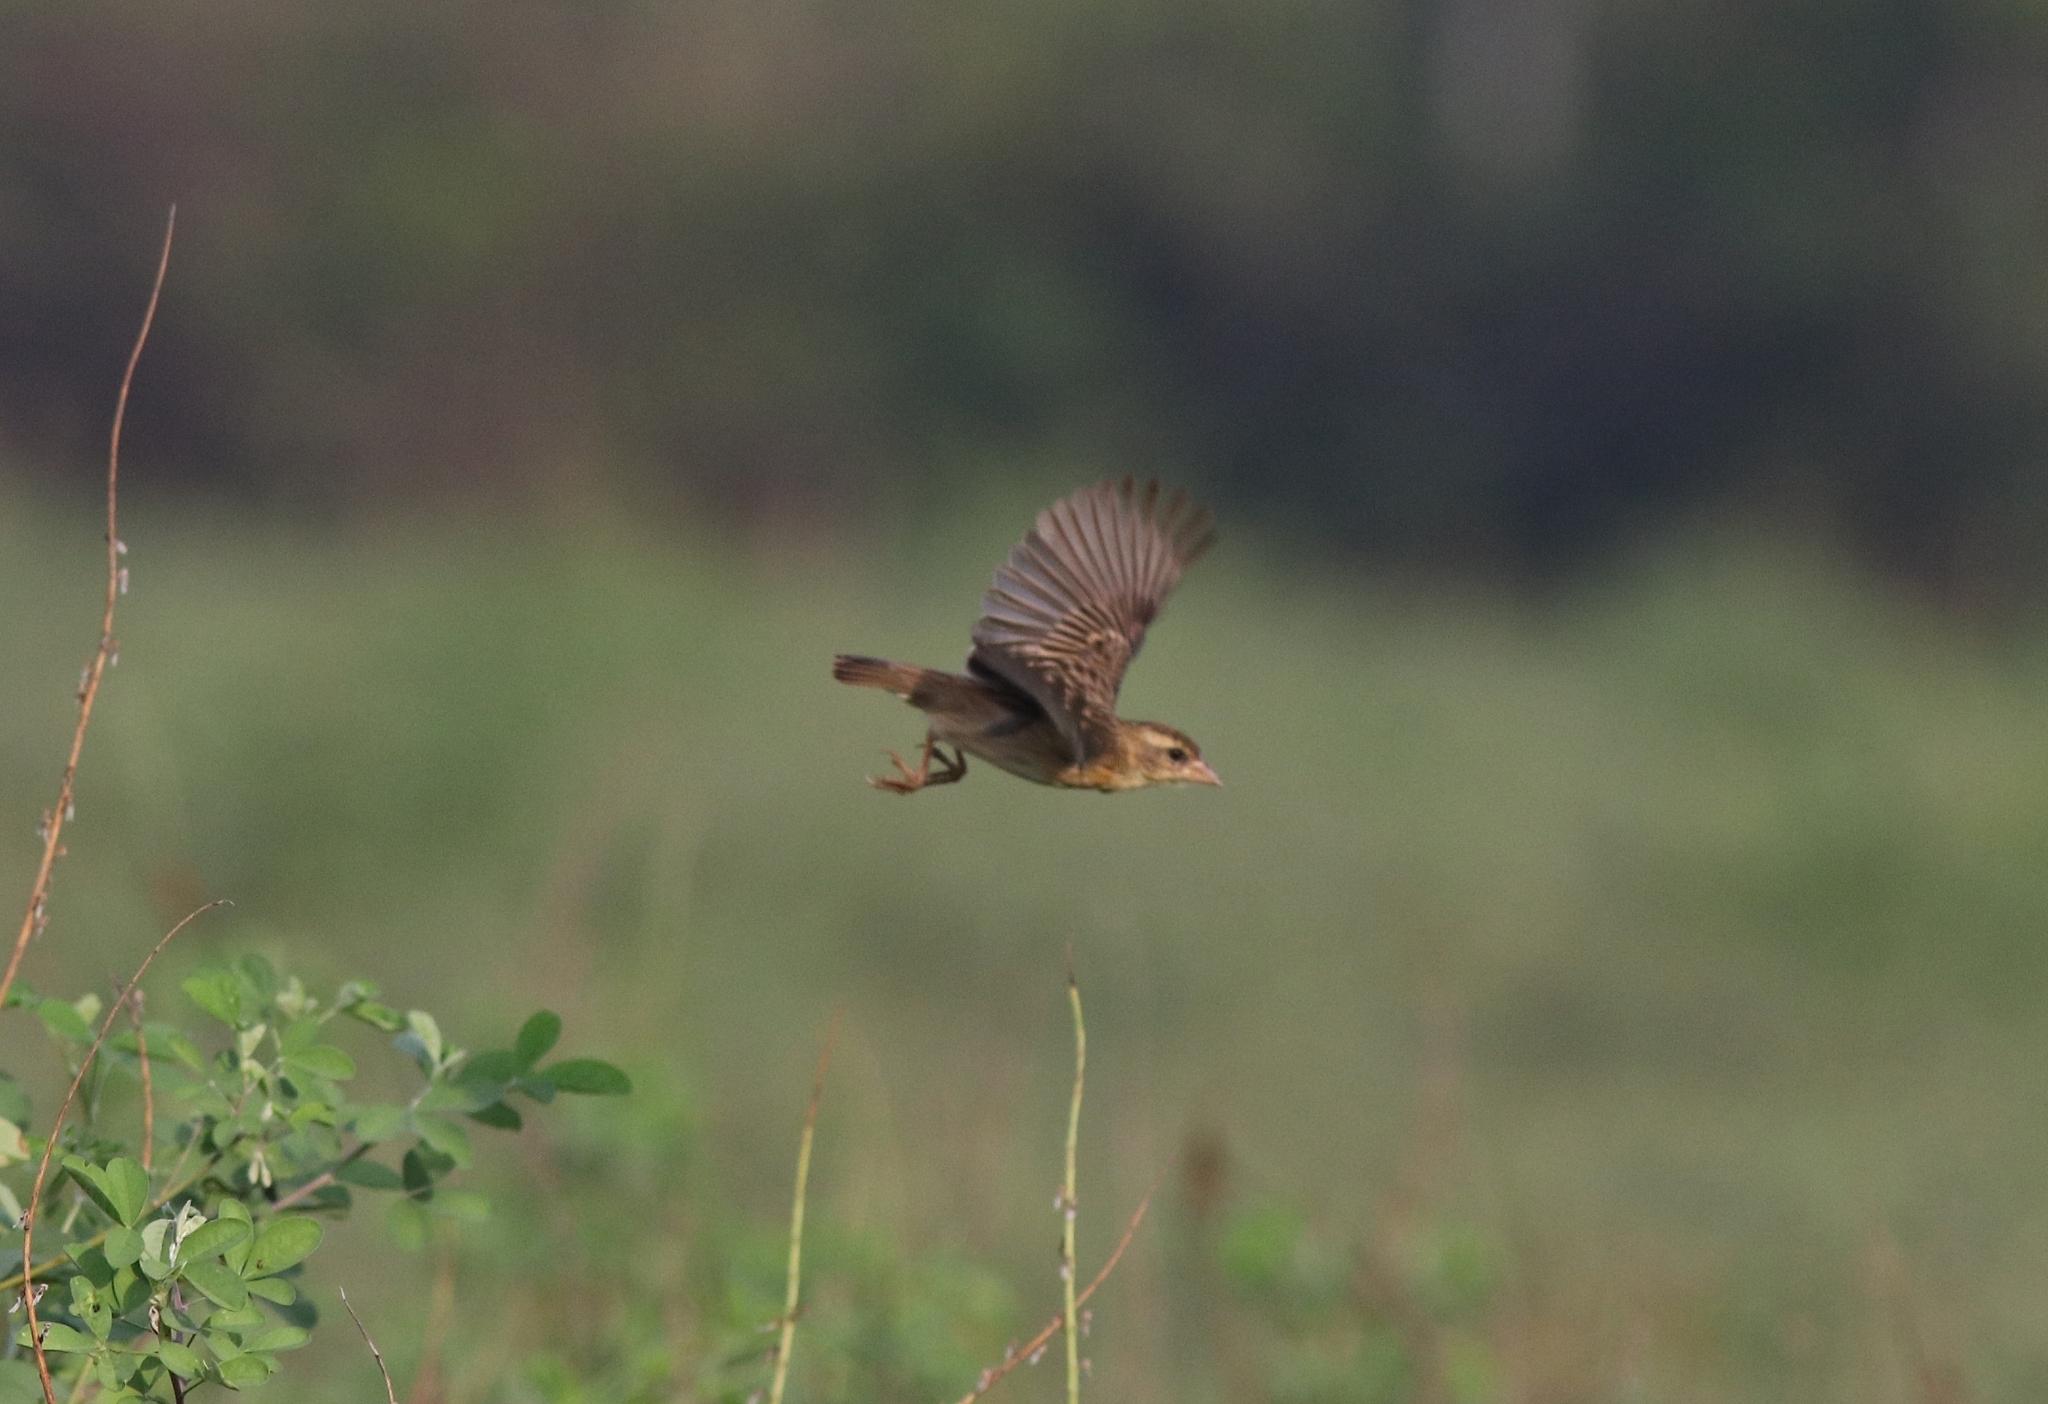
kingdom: Animalia
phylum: Chordata
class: Aves
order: Passeriformes
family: Ploceidae
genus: Ploceus
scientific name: Ploceus philippinus
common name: Baya weaver
